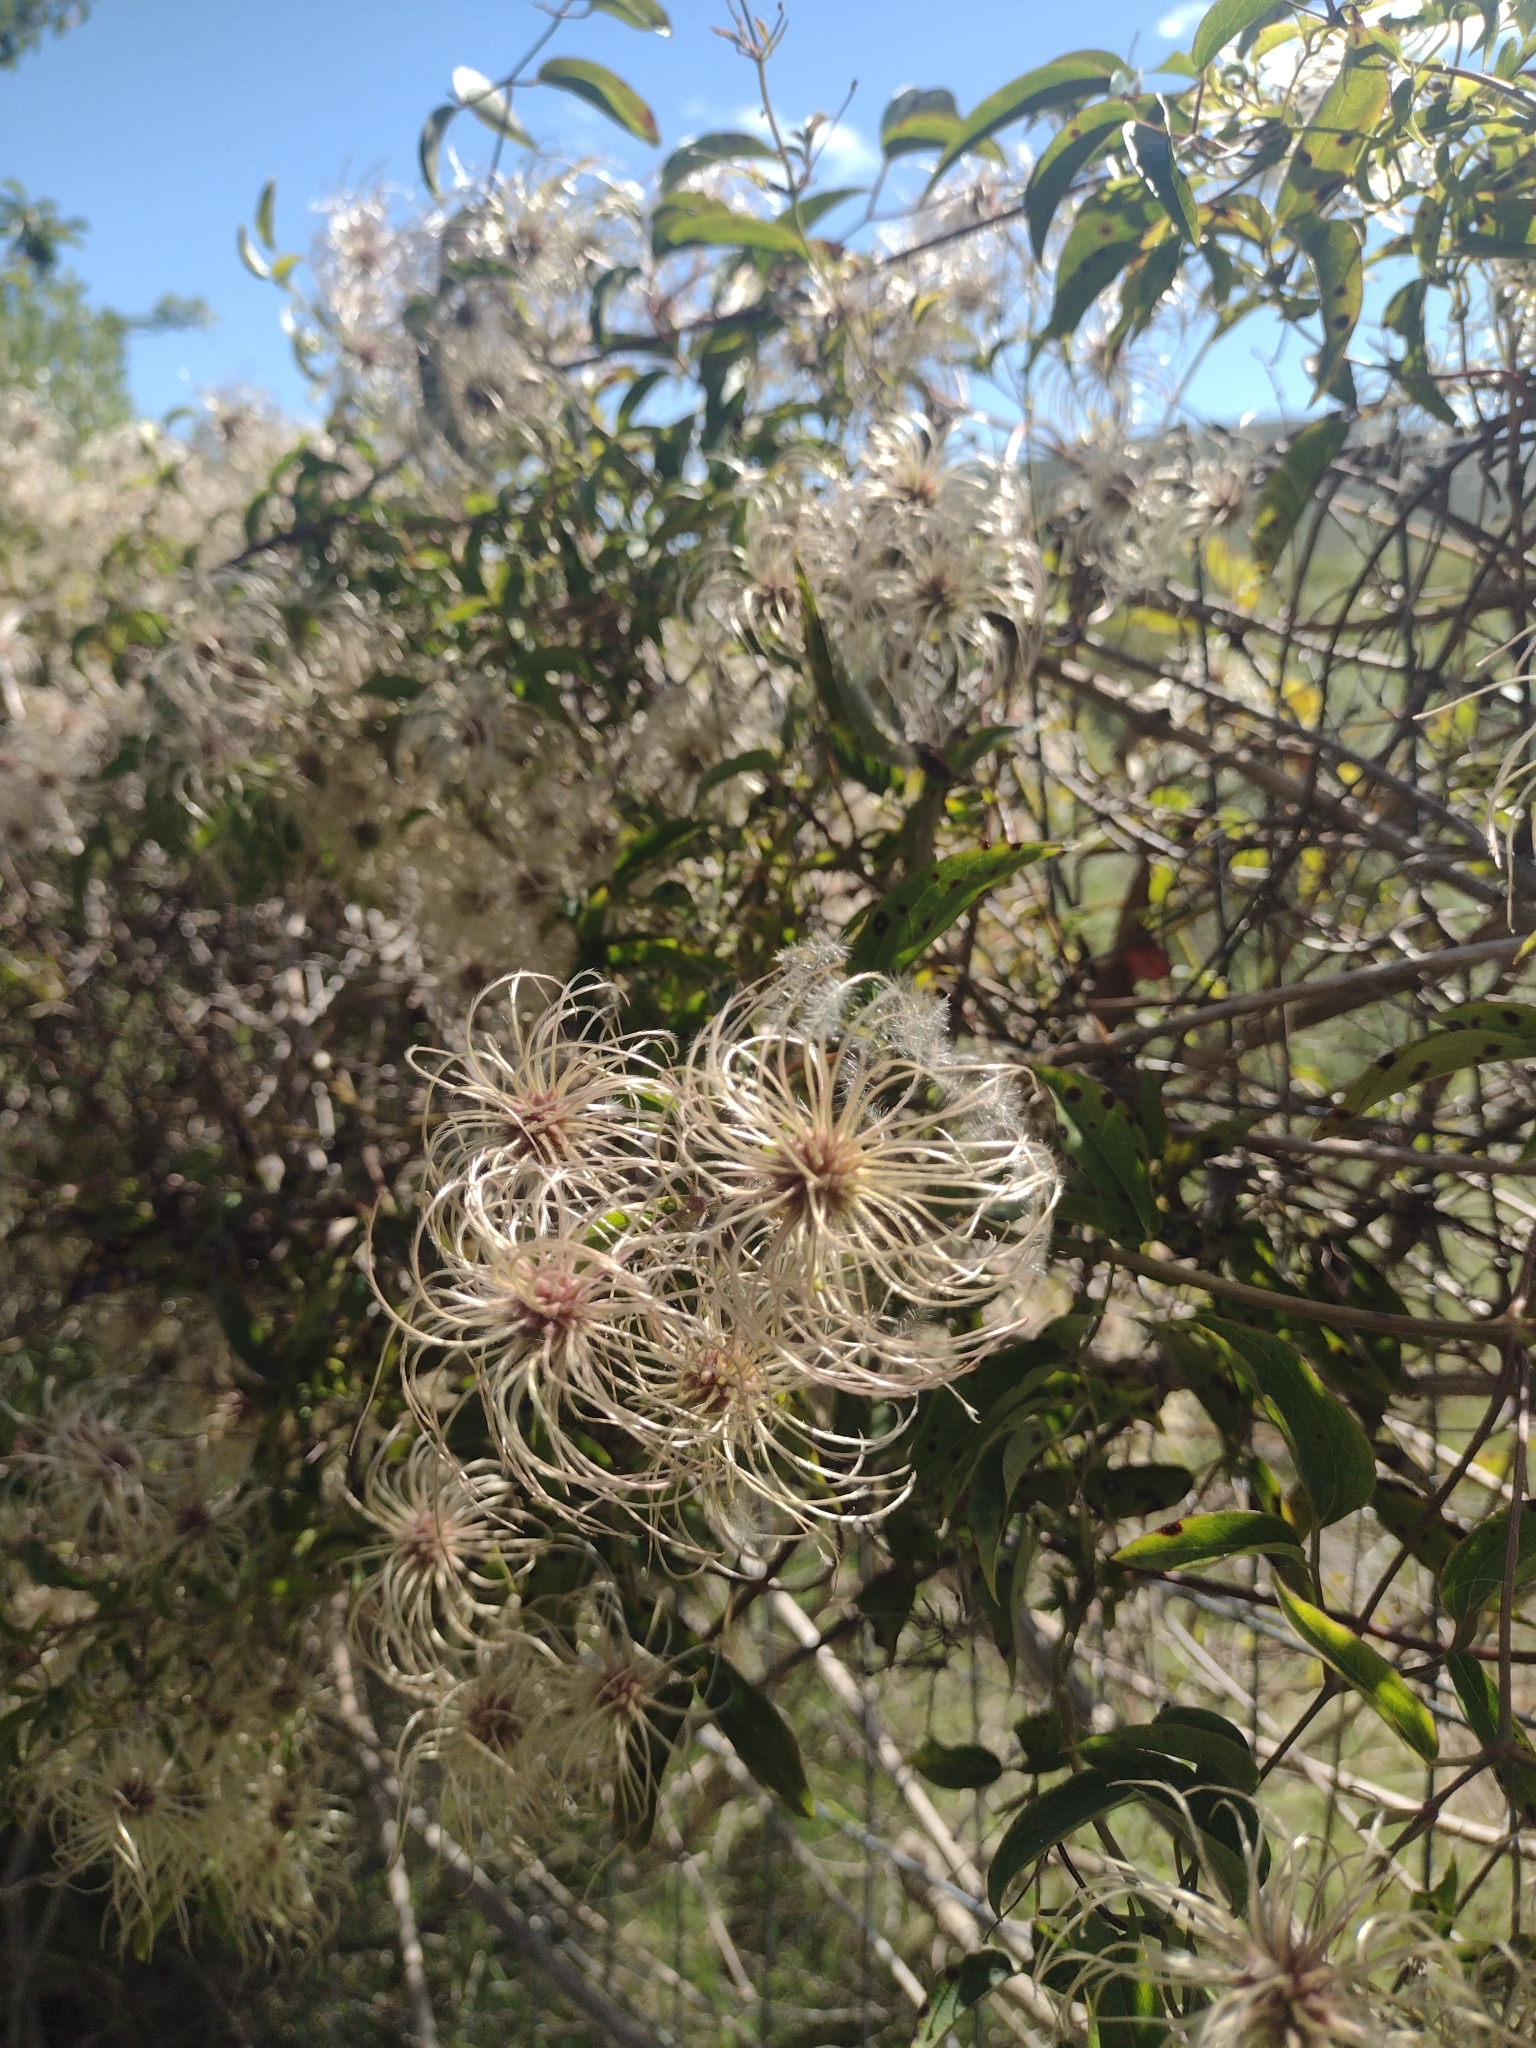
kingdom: Plantae
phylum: Tracheophyta
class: Magnoliopsida
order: Ranunculales
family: Ranunculaceae
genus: Clematis
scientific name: Clematis montevidensis
